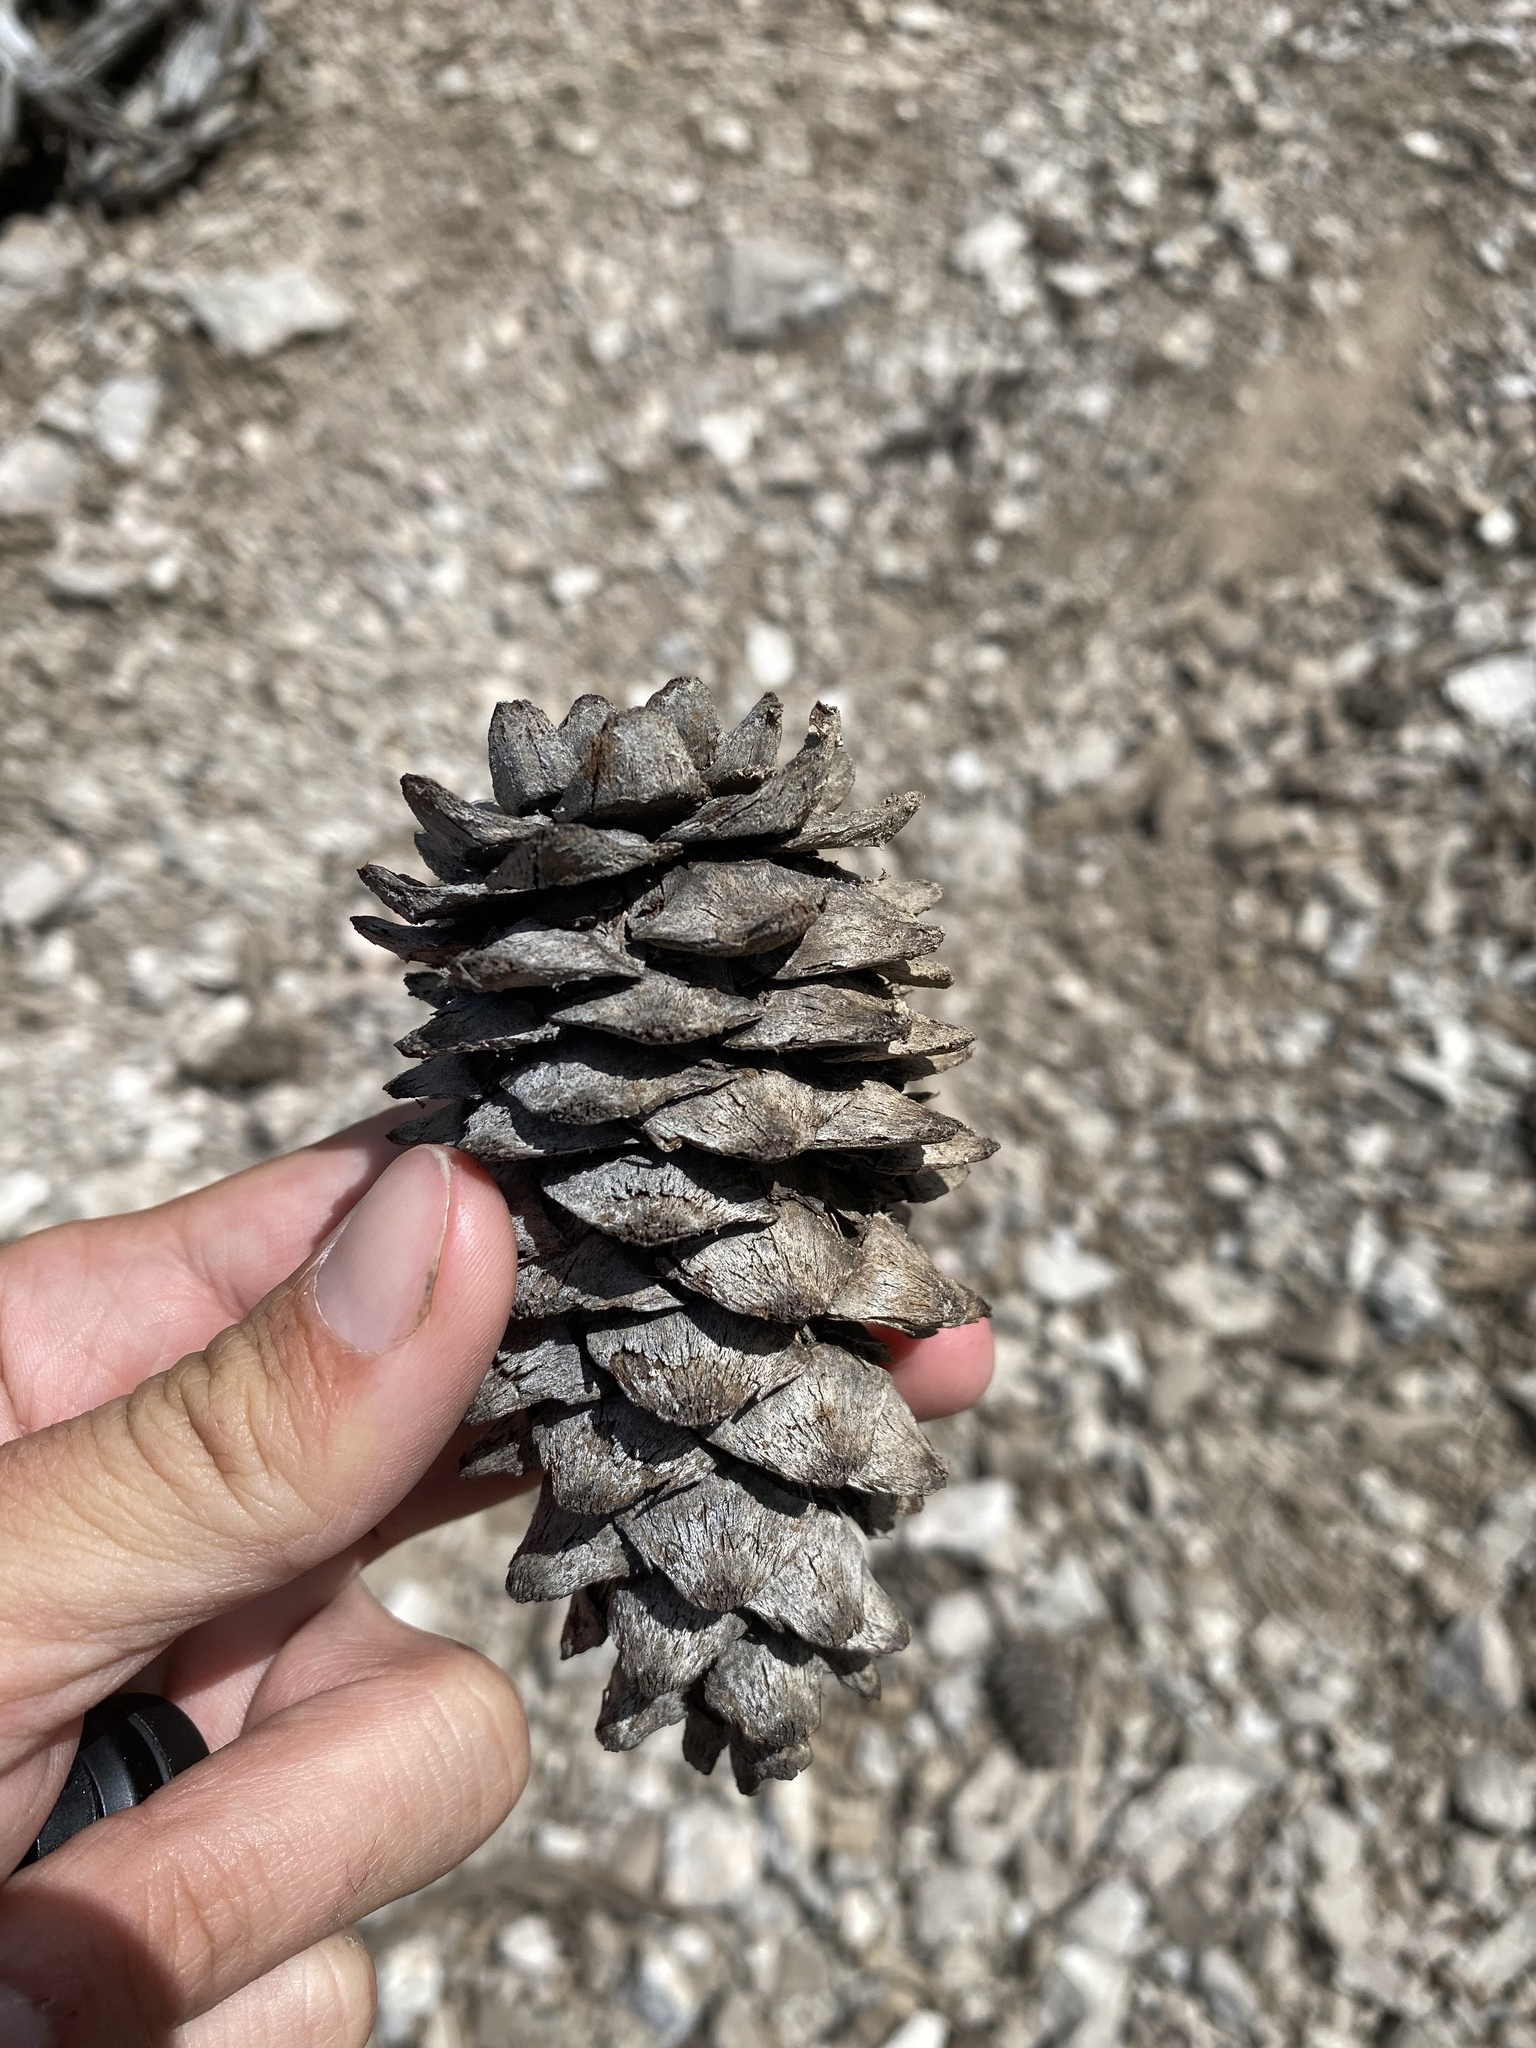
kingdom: Plantae
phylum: Tracheophyta
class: Pinopsida
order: Pinales
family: Pinaceae
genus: Pinus
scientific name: Pinus flexilis
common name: Limber pine
